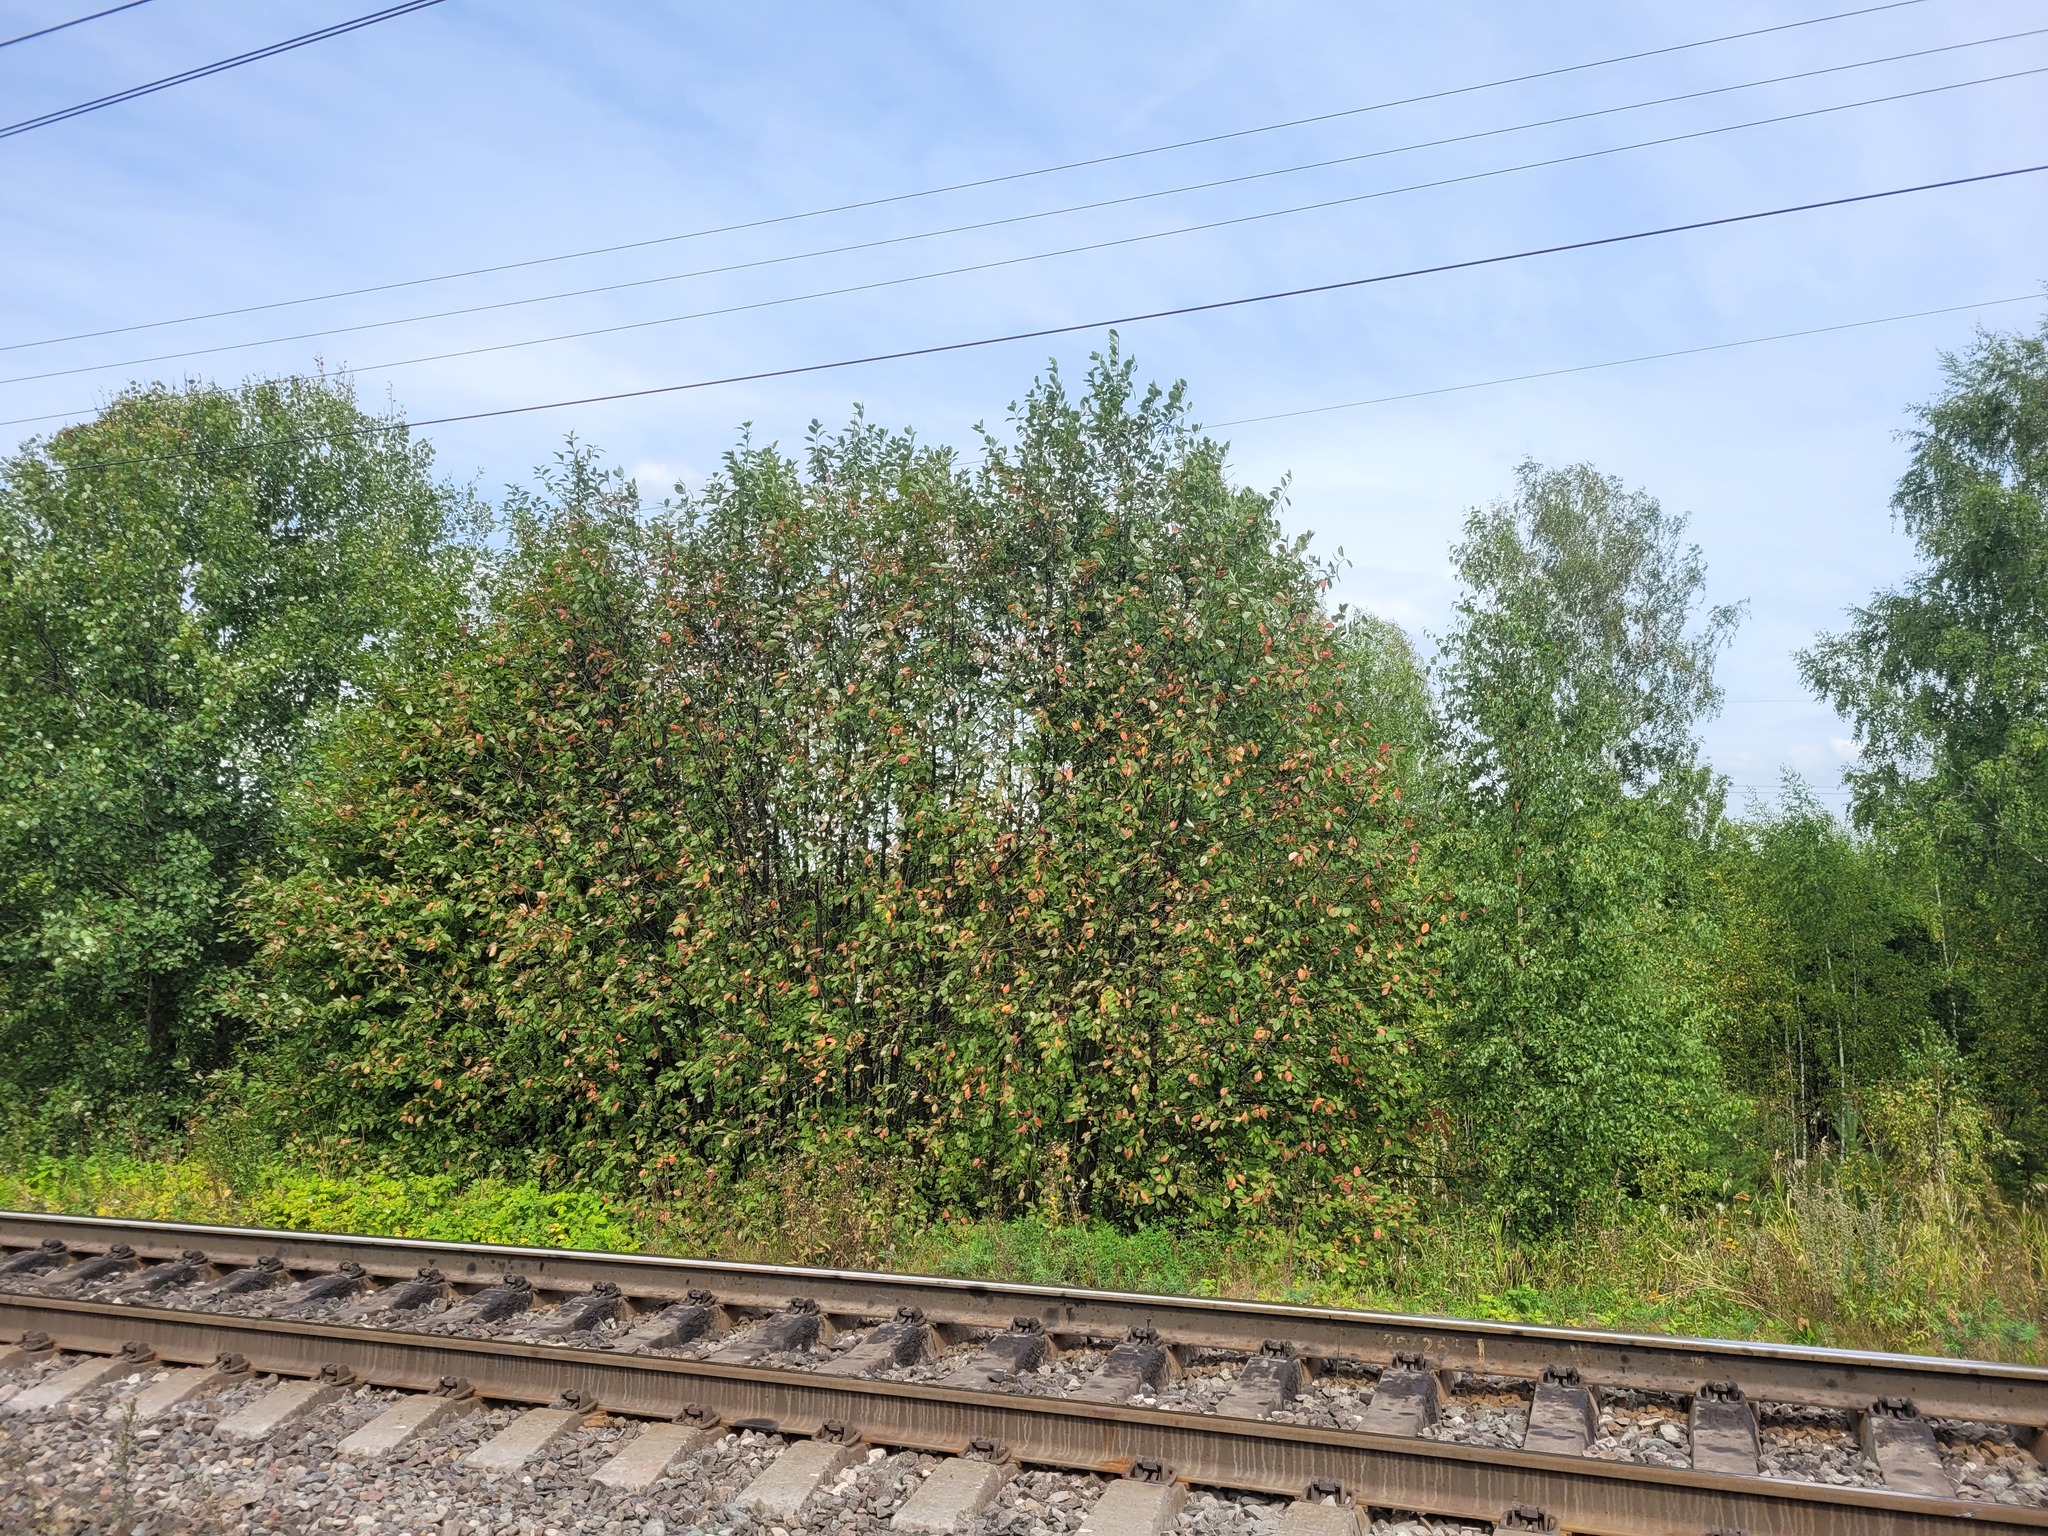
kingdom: Plantae
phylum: Tracheophyta
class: Magnoliopsida
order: Rosales
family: Rosaceae
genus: Prunus
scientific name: Prunus padus
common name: Bird cherry
